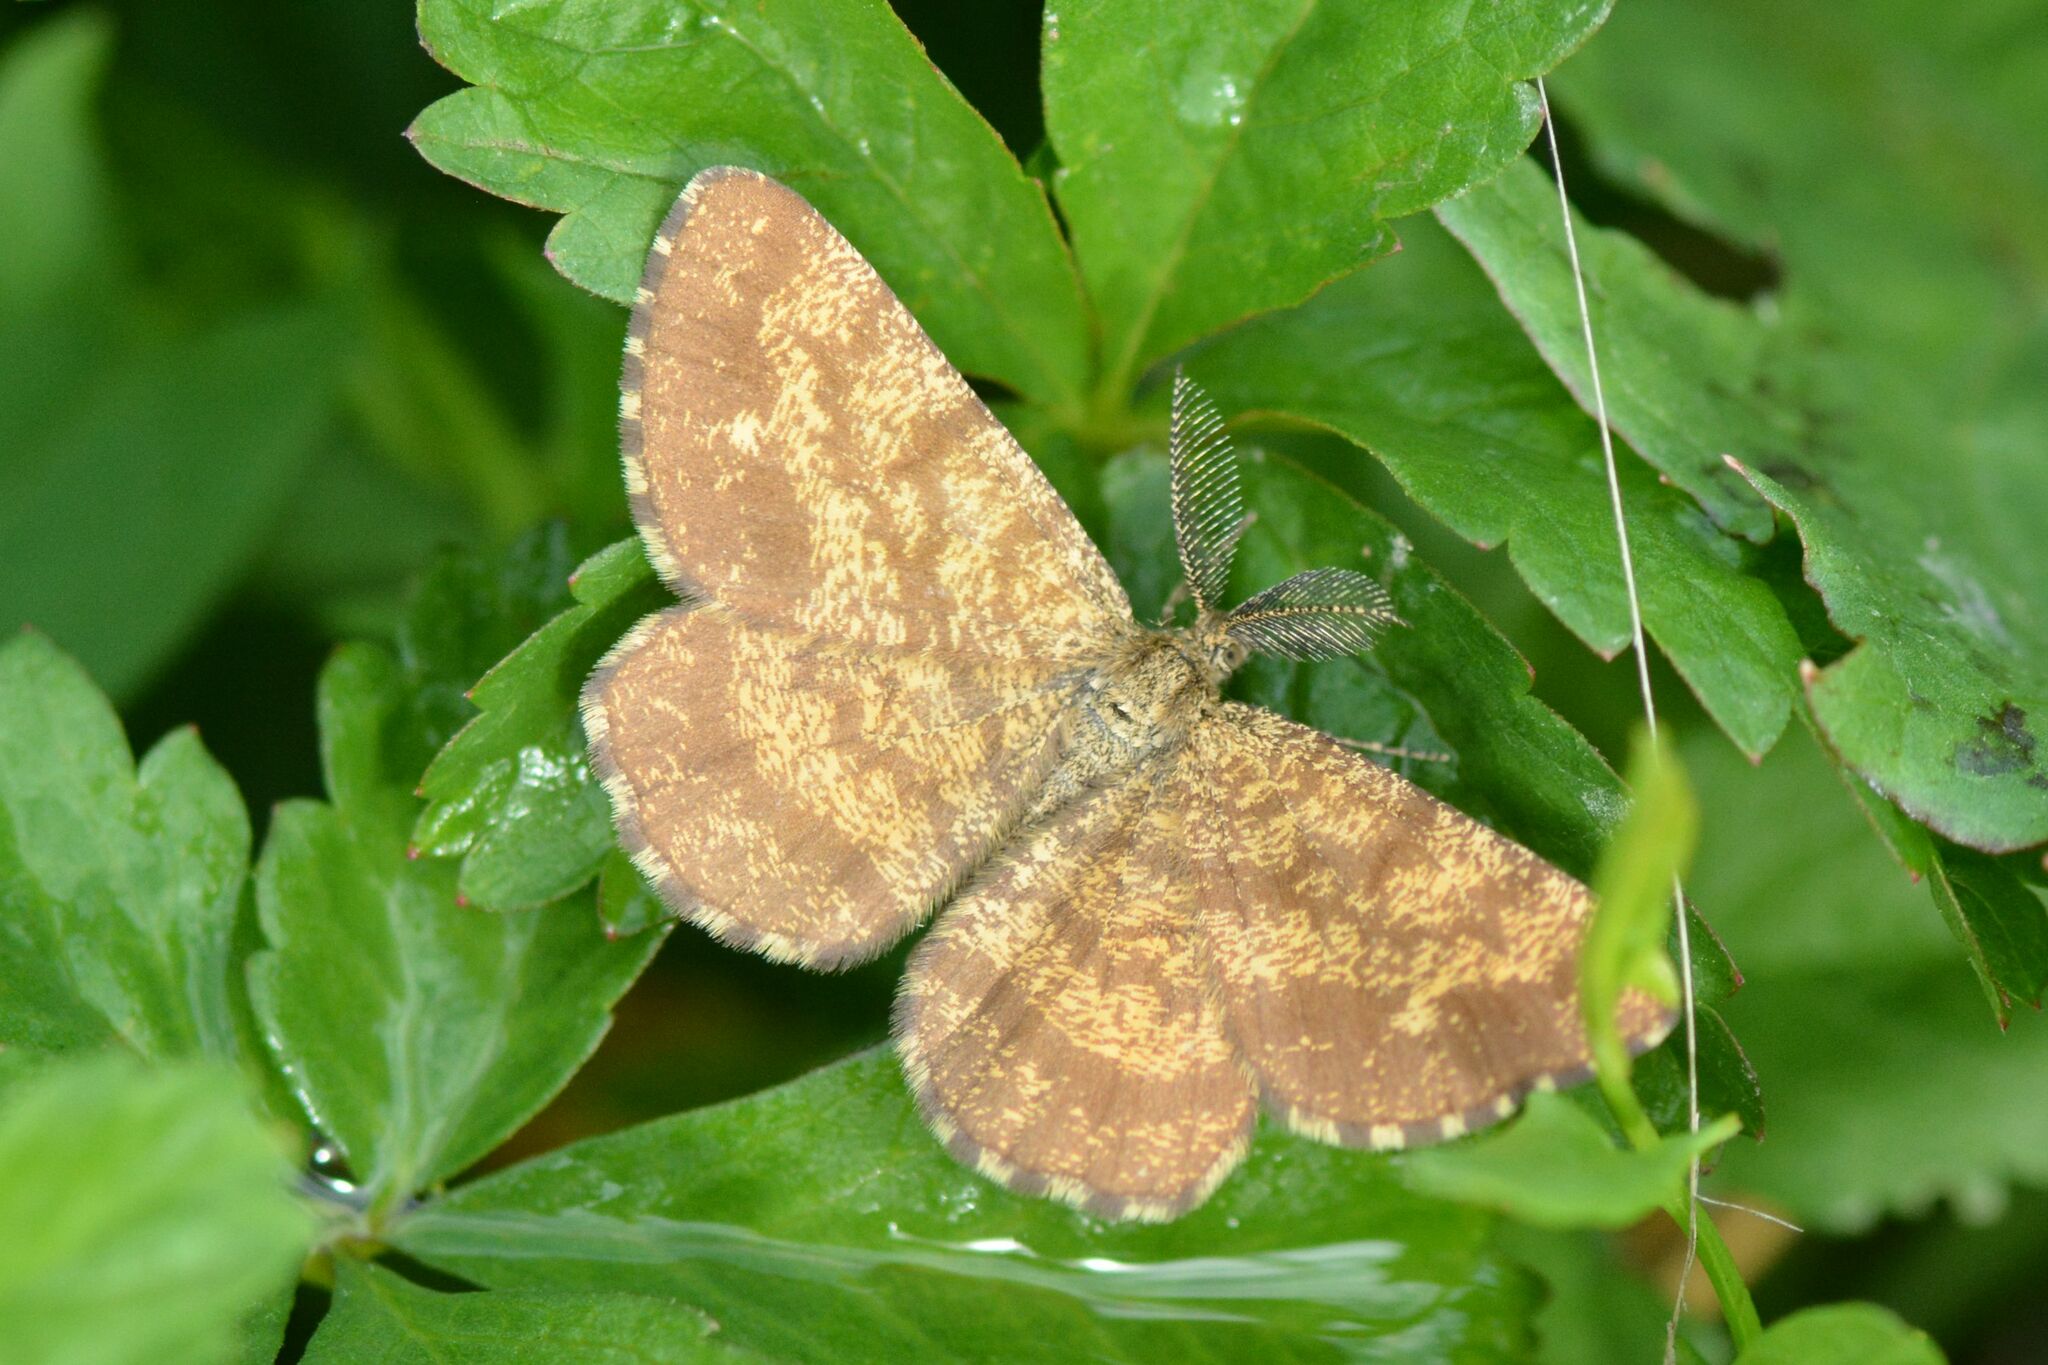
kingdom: Animalia
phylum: Arthropoda
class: Insecta
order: Lepidoptera
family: Geometridae
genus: Ematurga
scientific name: Ematurga atomaria
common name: Common heath
